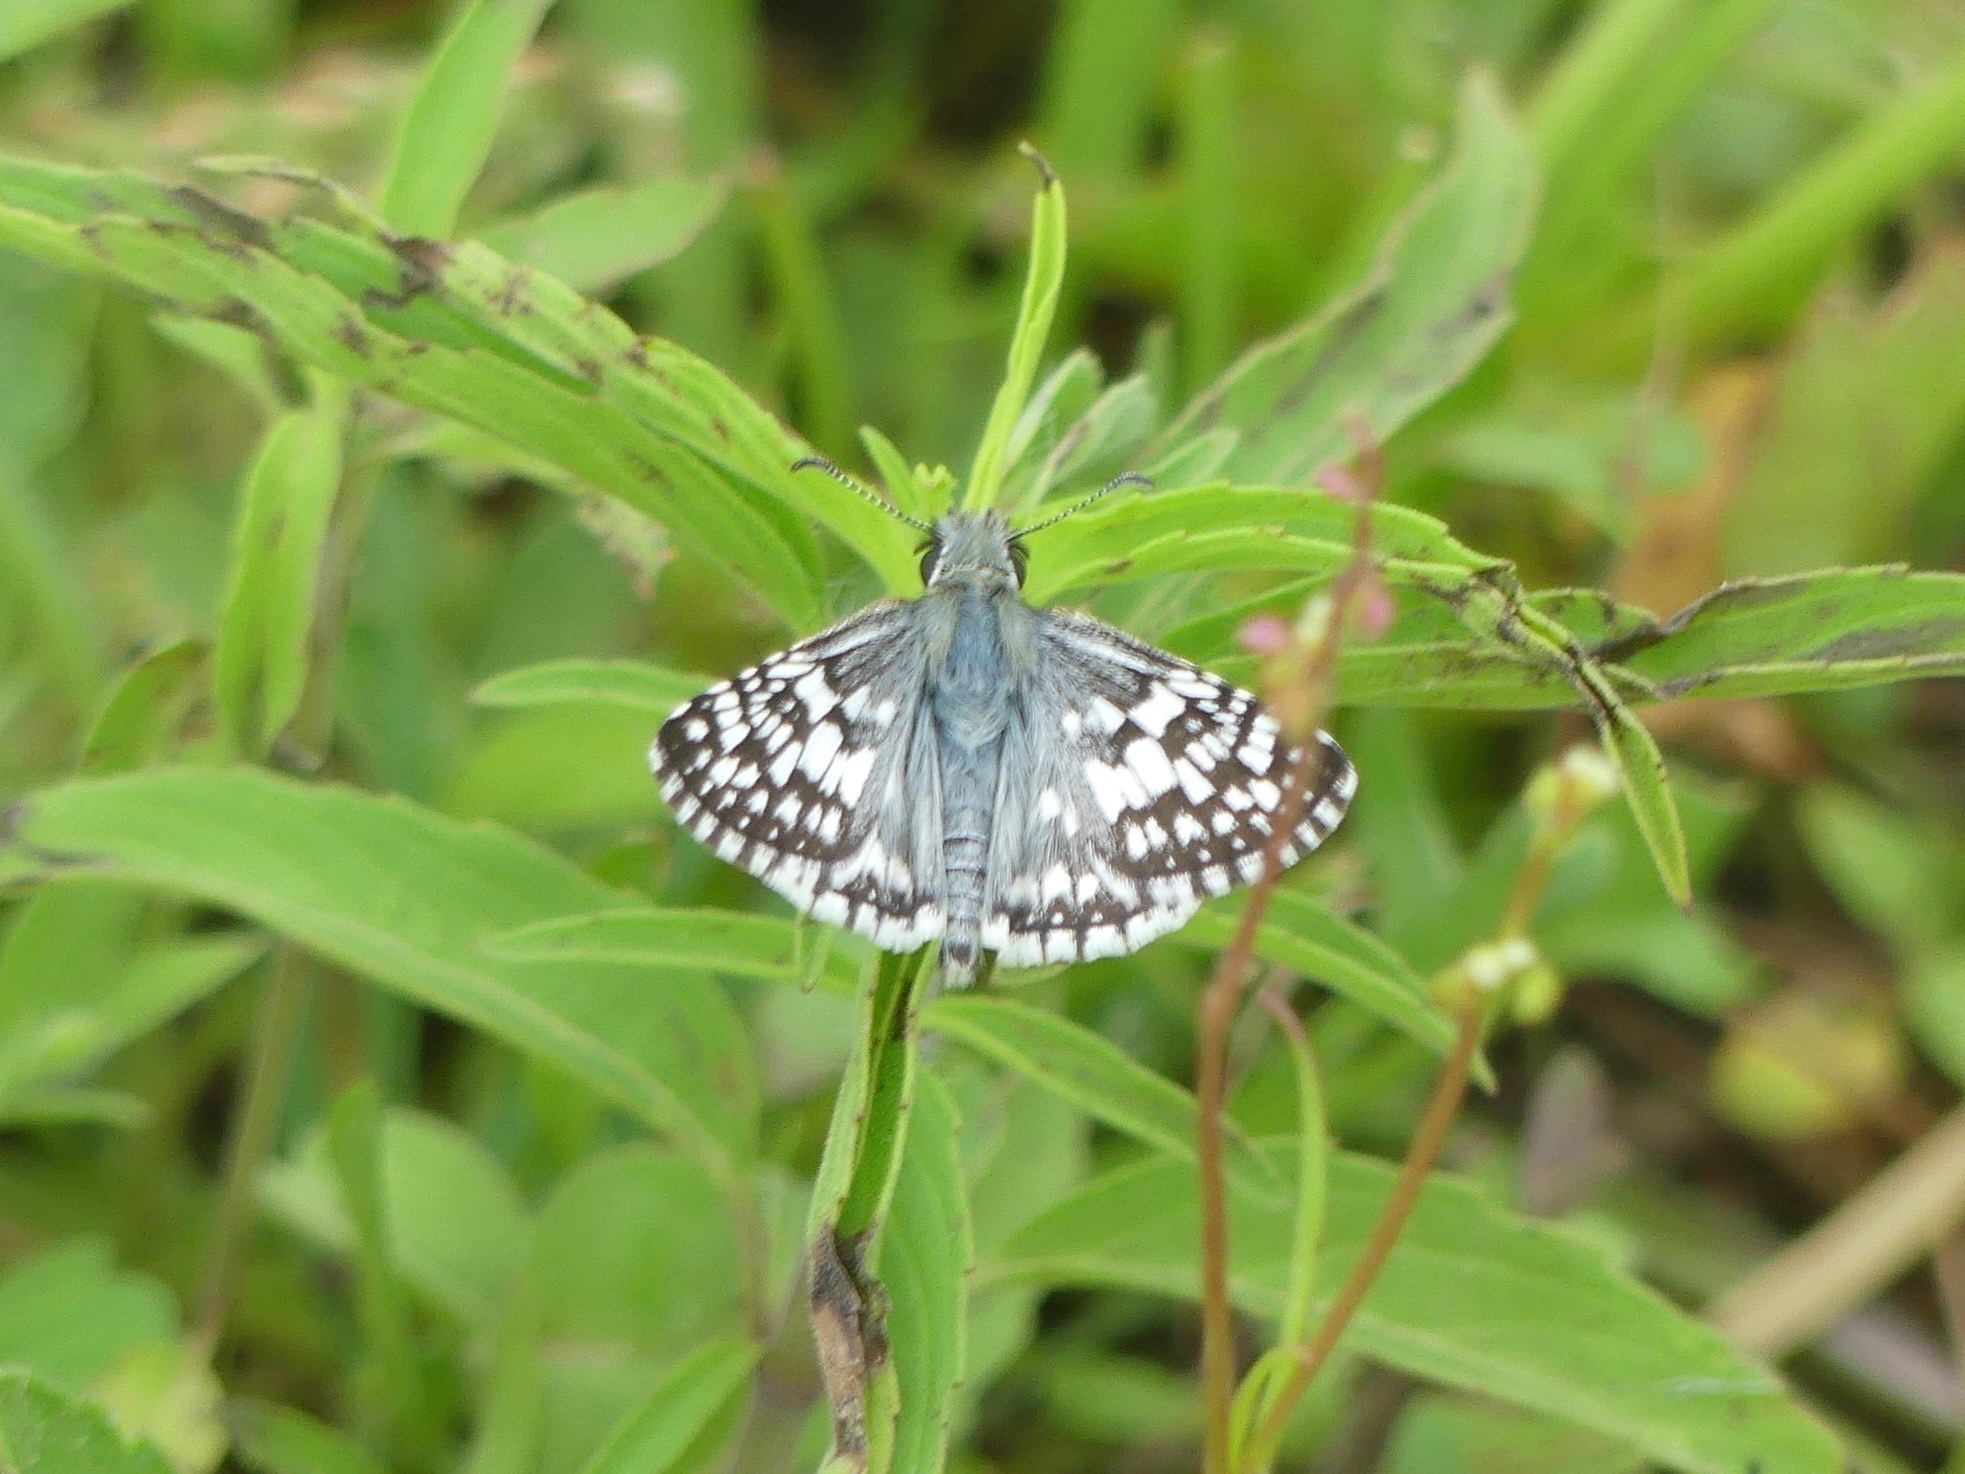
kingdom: Animalia
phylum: Arthropoda
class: Insecta
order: Lepidoptera
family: Hesperiidae
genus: Burnsius
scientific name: Burnsius
